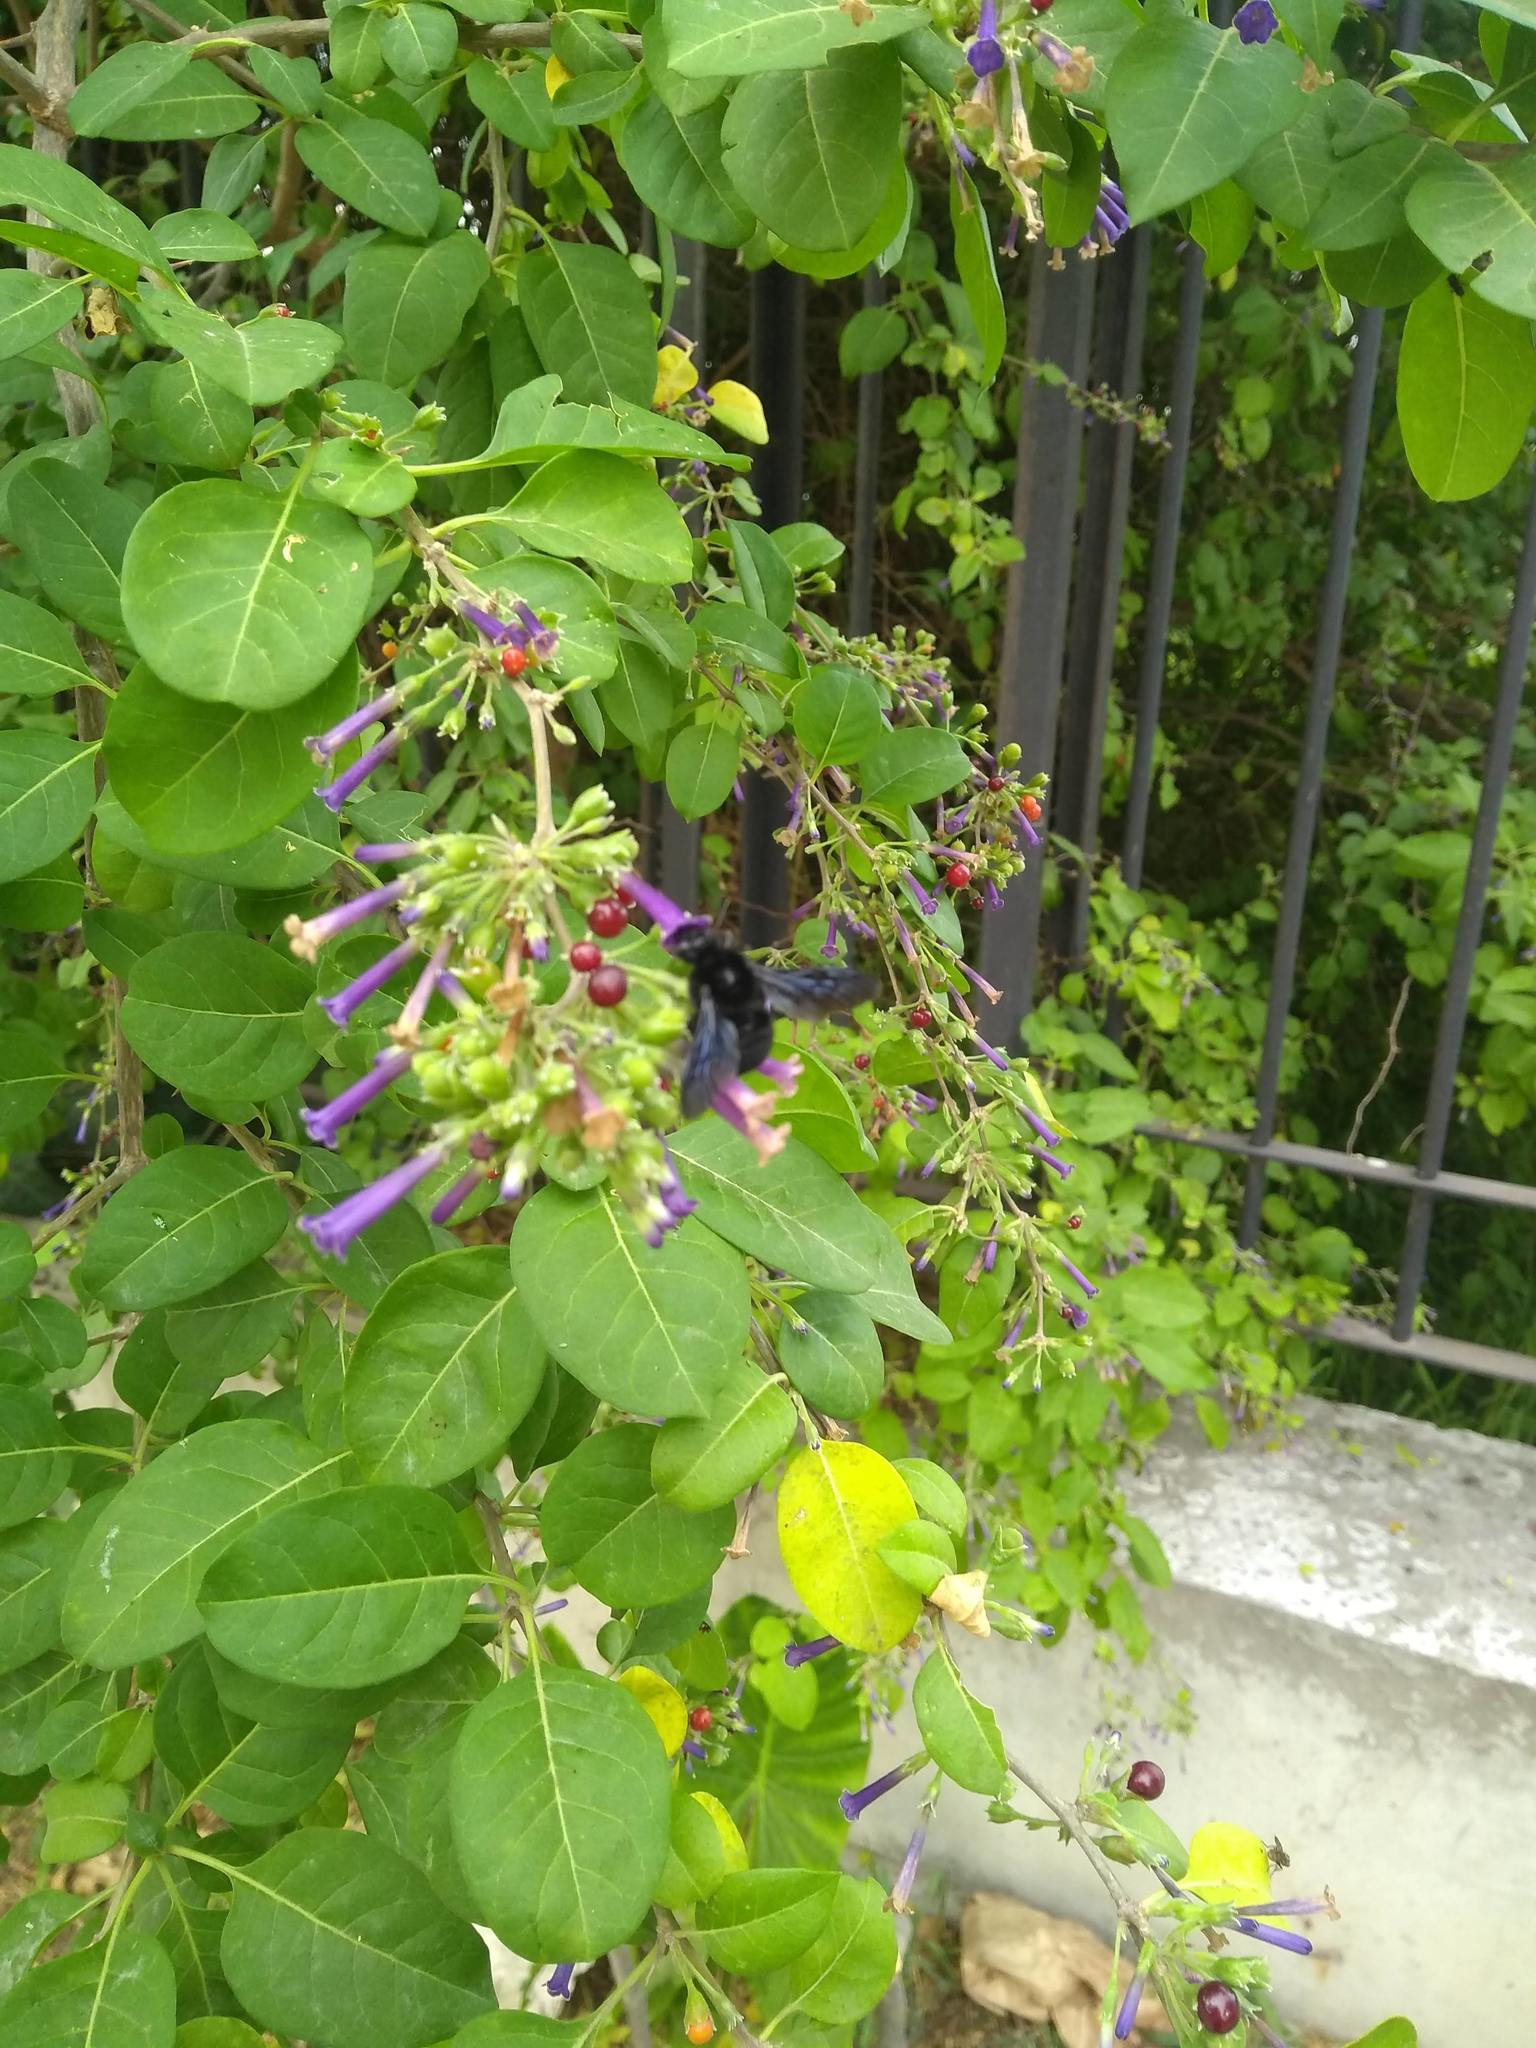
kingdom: Animalia
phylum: Arthropoda
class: Insecta
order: Hymenoptera
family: Apidae
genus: Bombus
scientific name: Bombus pauloensis
